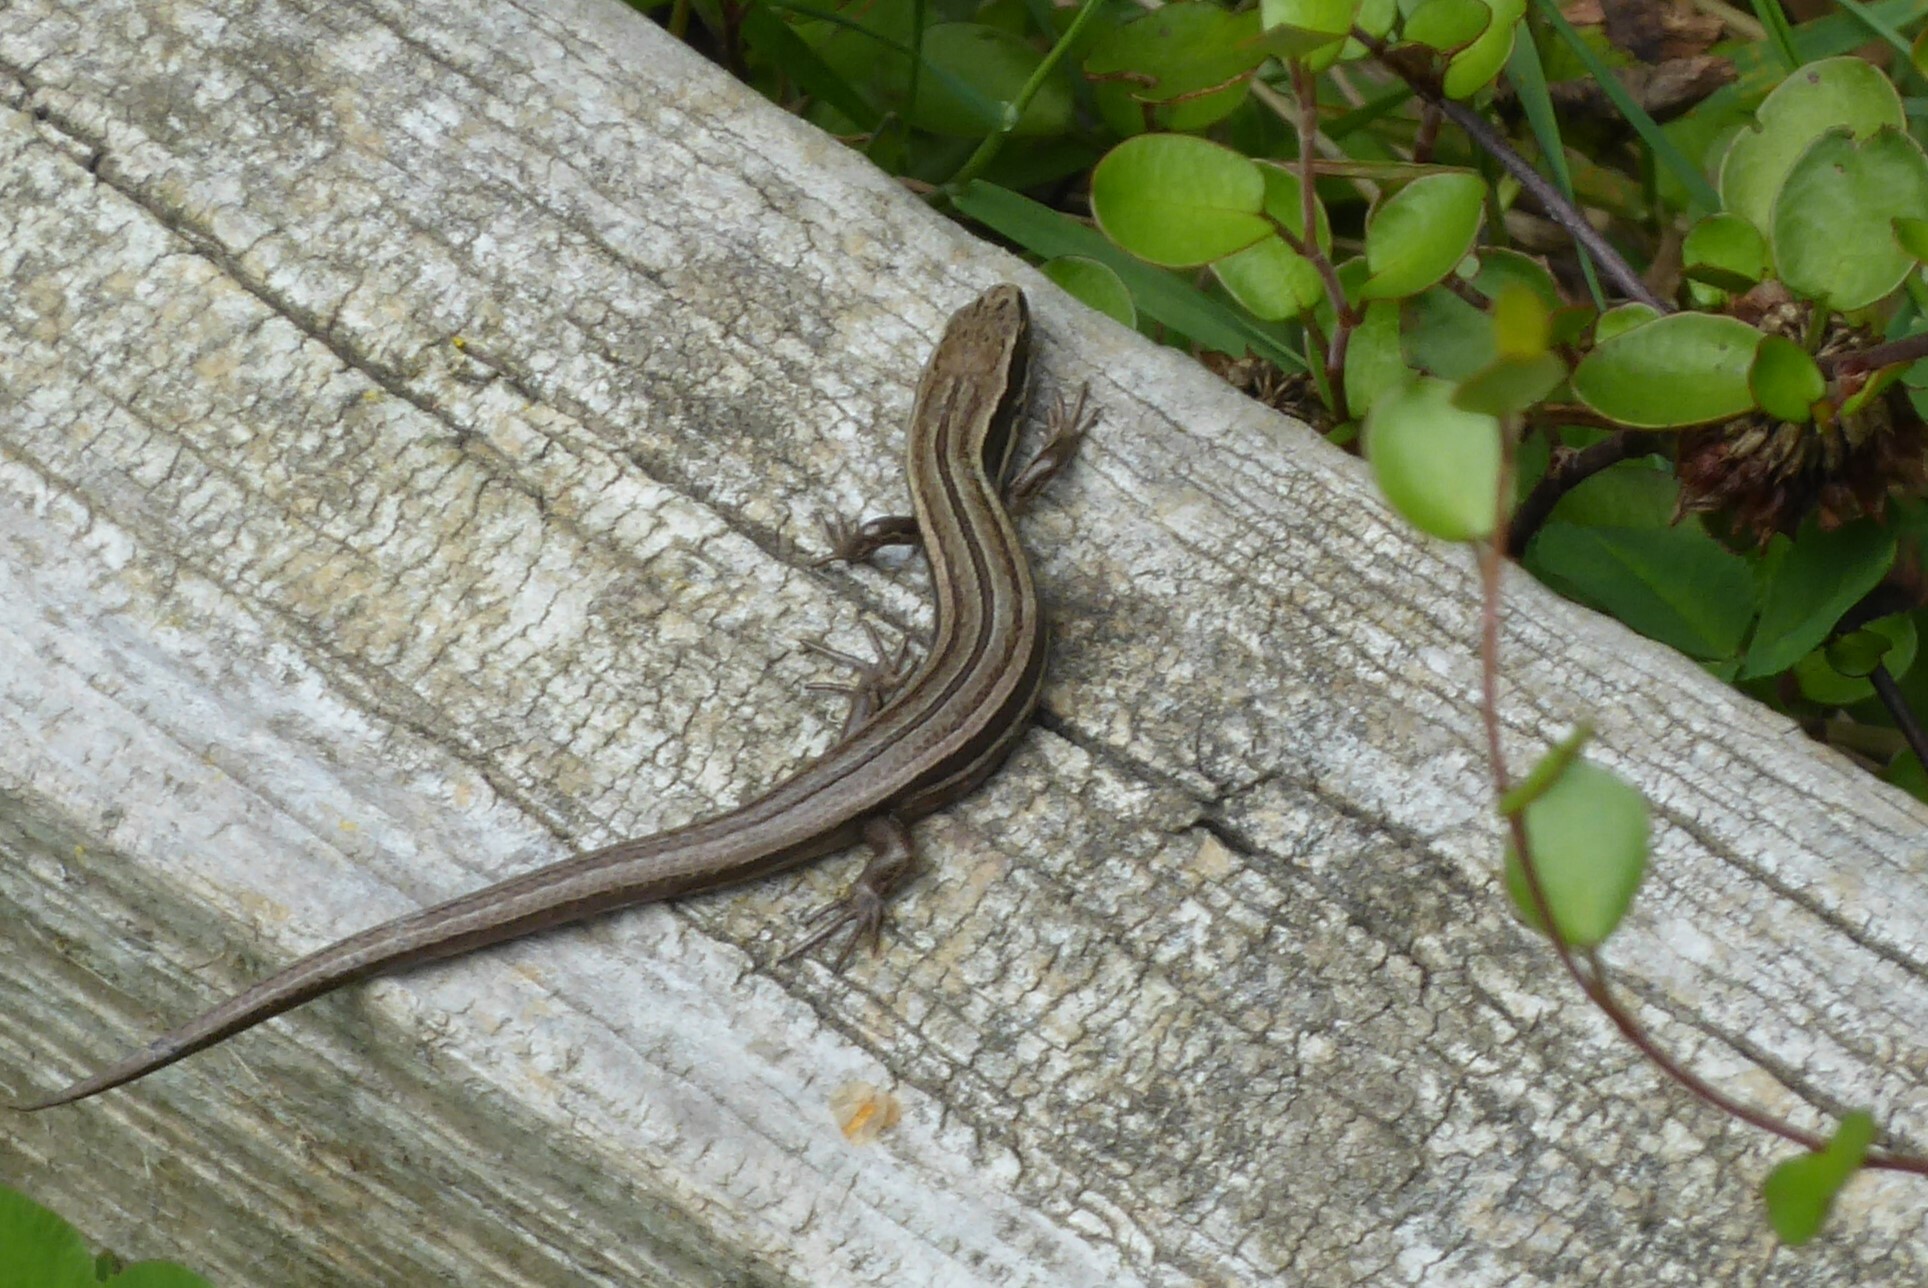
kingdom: Animalia
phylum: Chordata
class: Squamata
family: Scincidae
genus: Oligosoma
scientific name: Oligosoma polychroma
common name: Common new zealand skink
